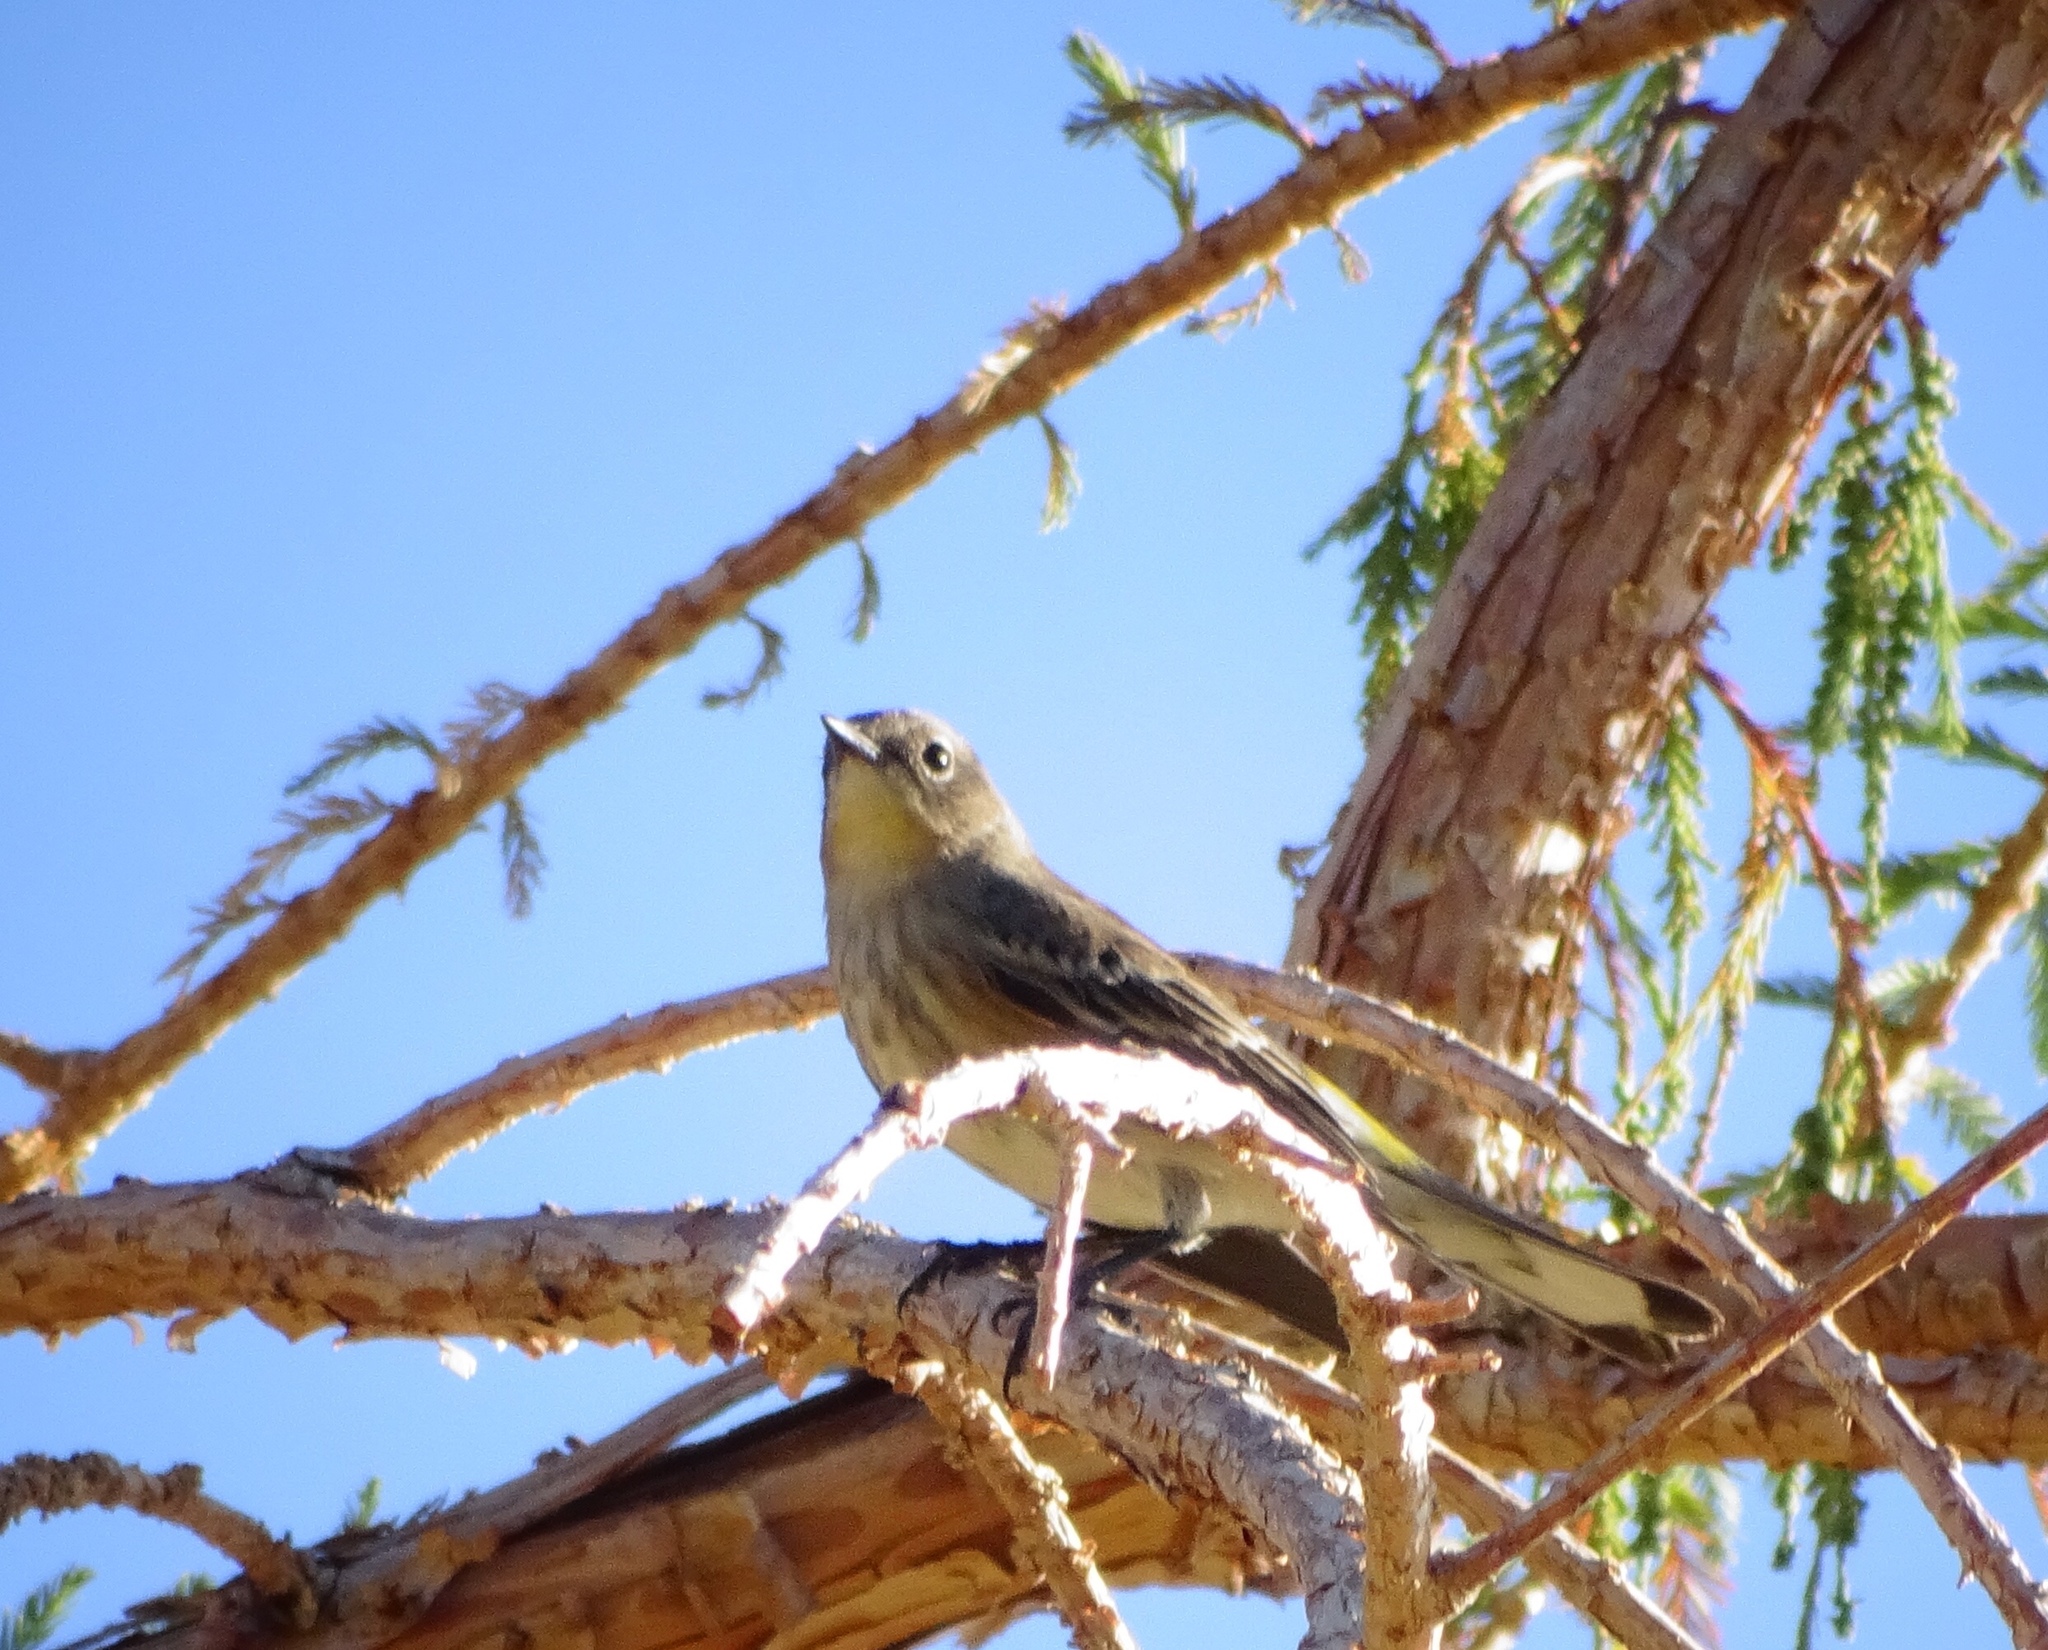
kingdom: Animalia
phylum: Chordata
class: Aves
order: Passeriformes
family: Parulidae
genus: Setophaga
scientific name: Setophaga coronata
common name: Myrtle warbler
